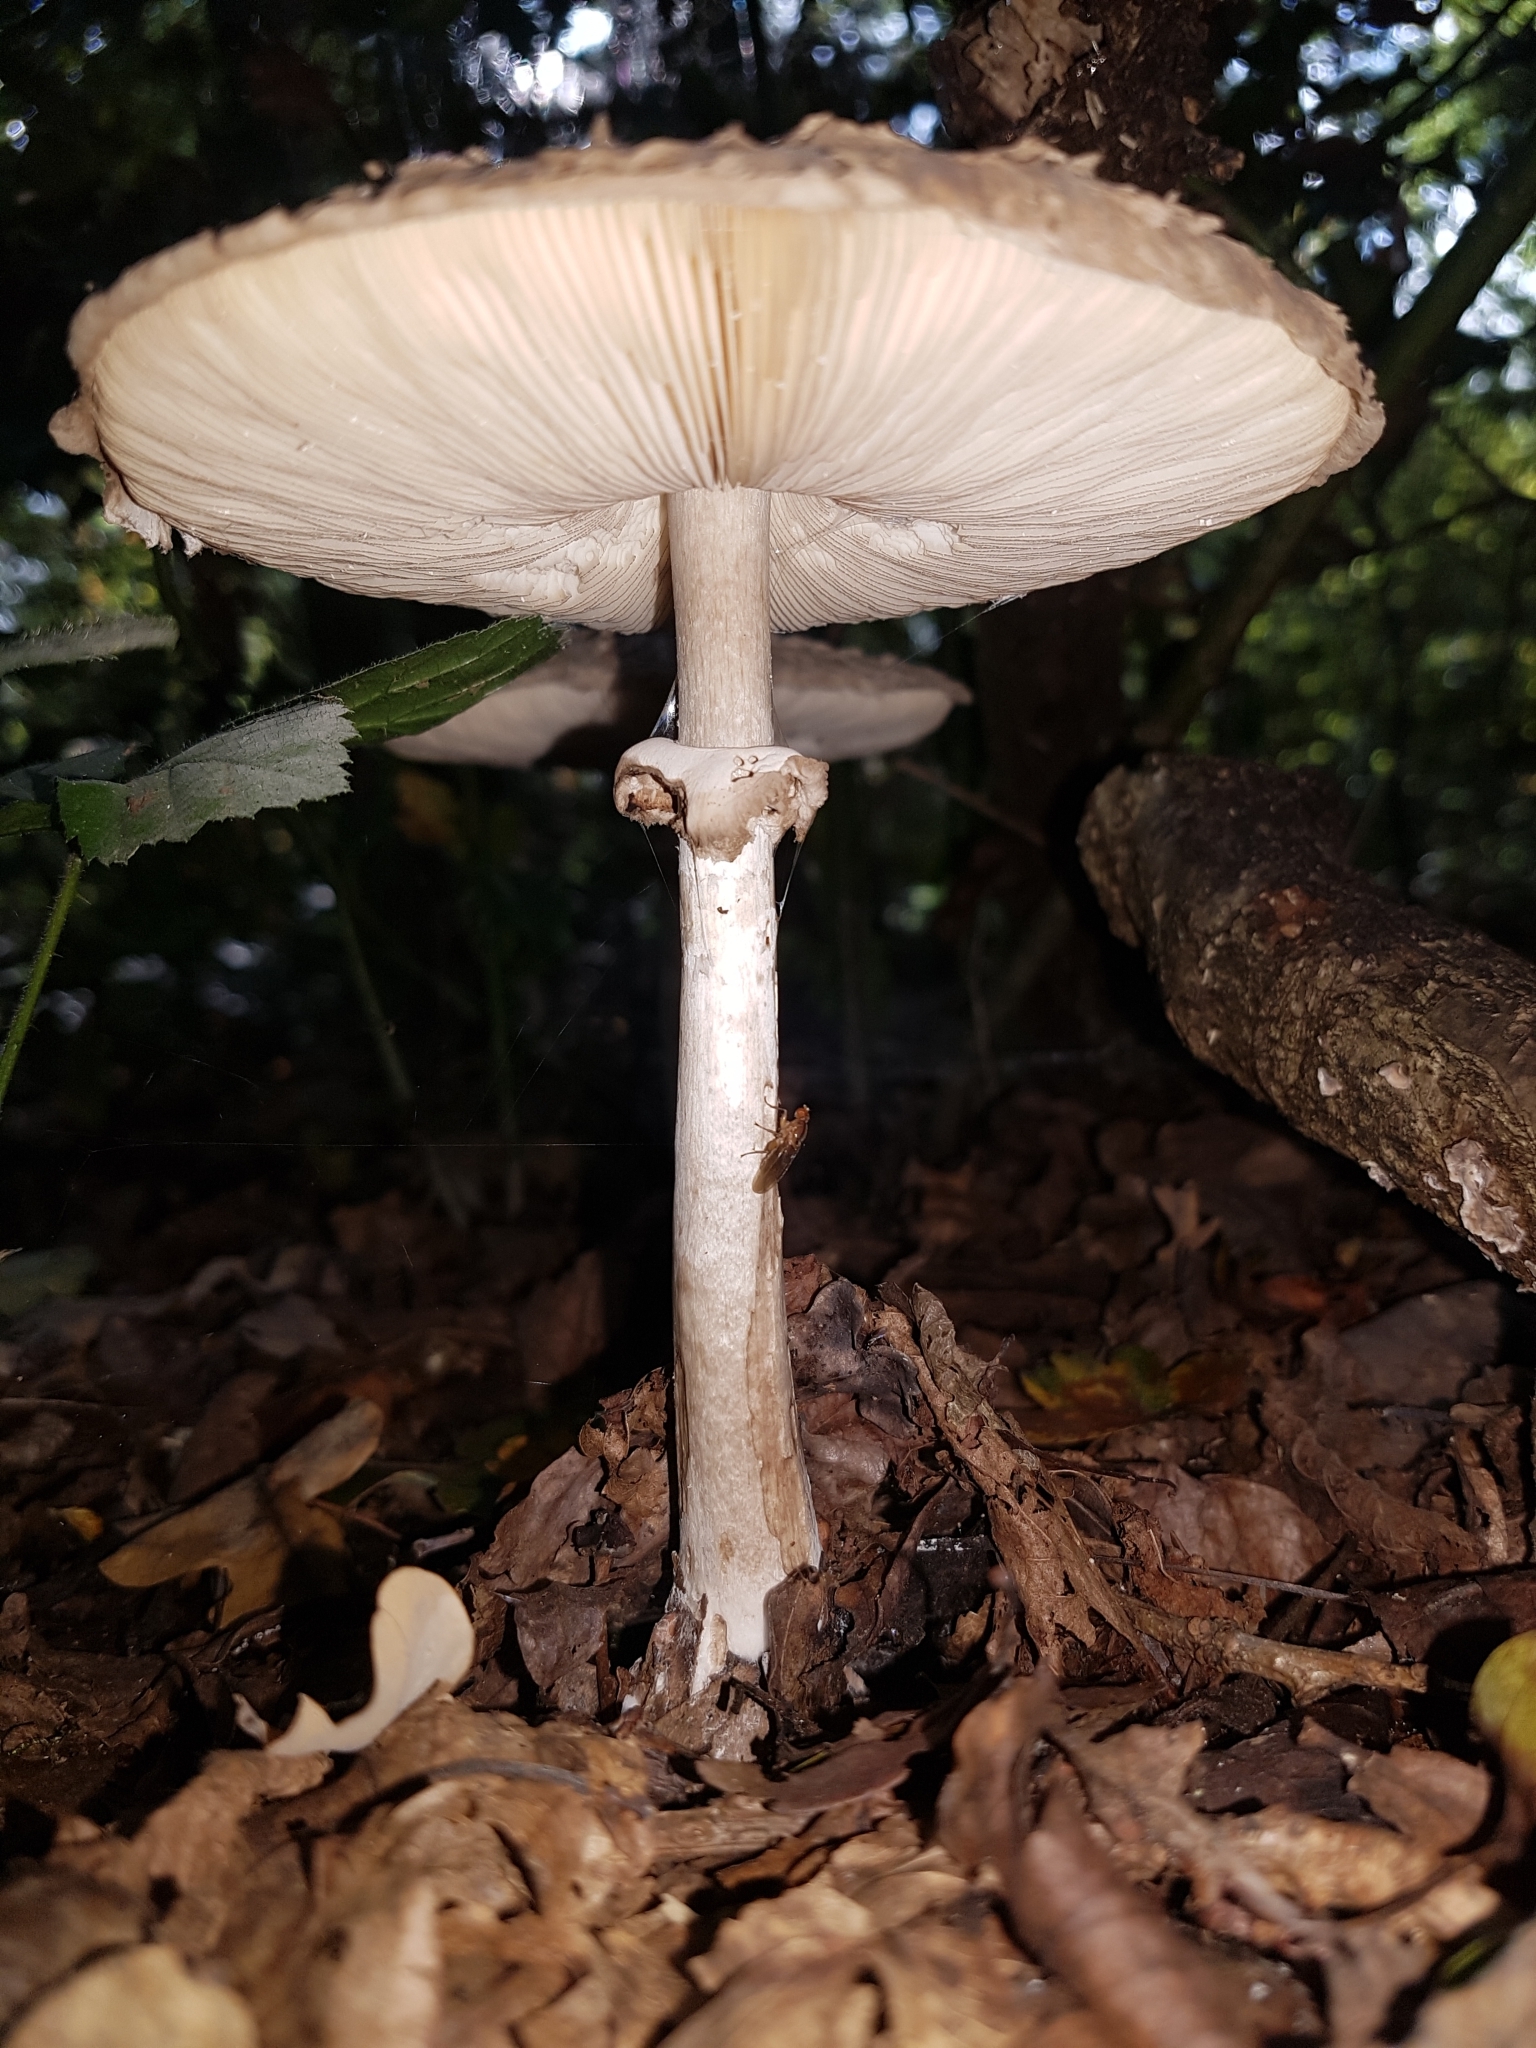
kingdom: Fungi
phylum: Basidiomycota
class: Agaricomycetes
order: Agaricales
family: Agaricaceae
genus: Chlorophyllum
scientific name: Chlorophyllum rhacodes
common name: Shaggy parasol
